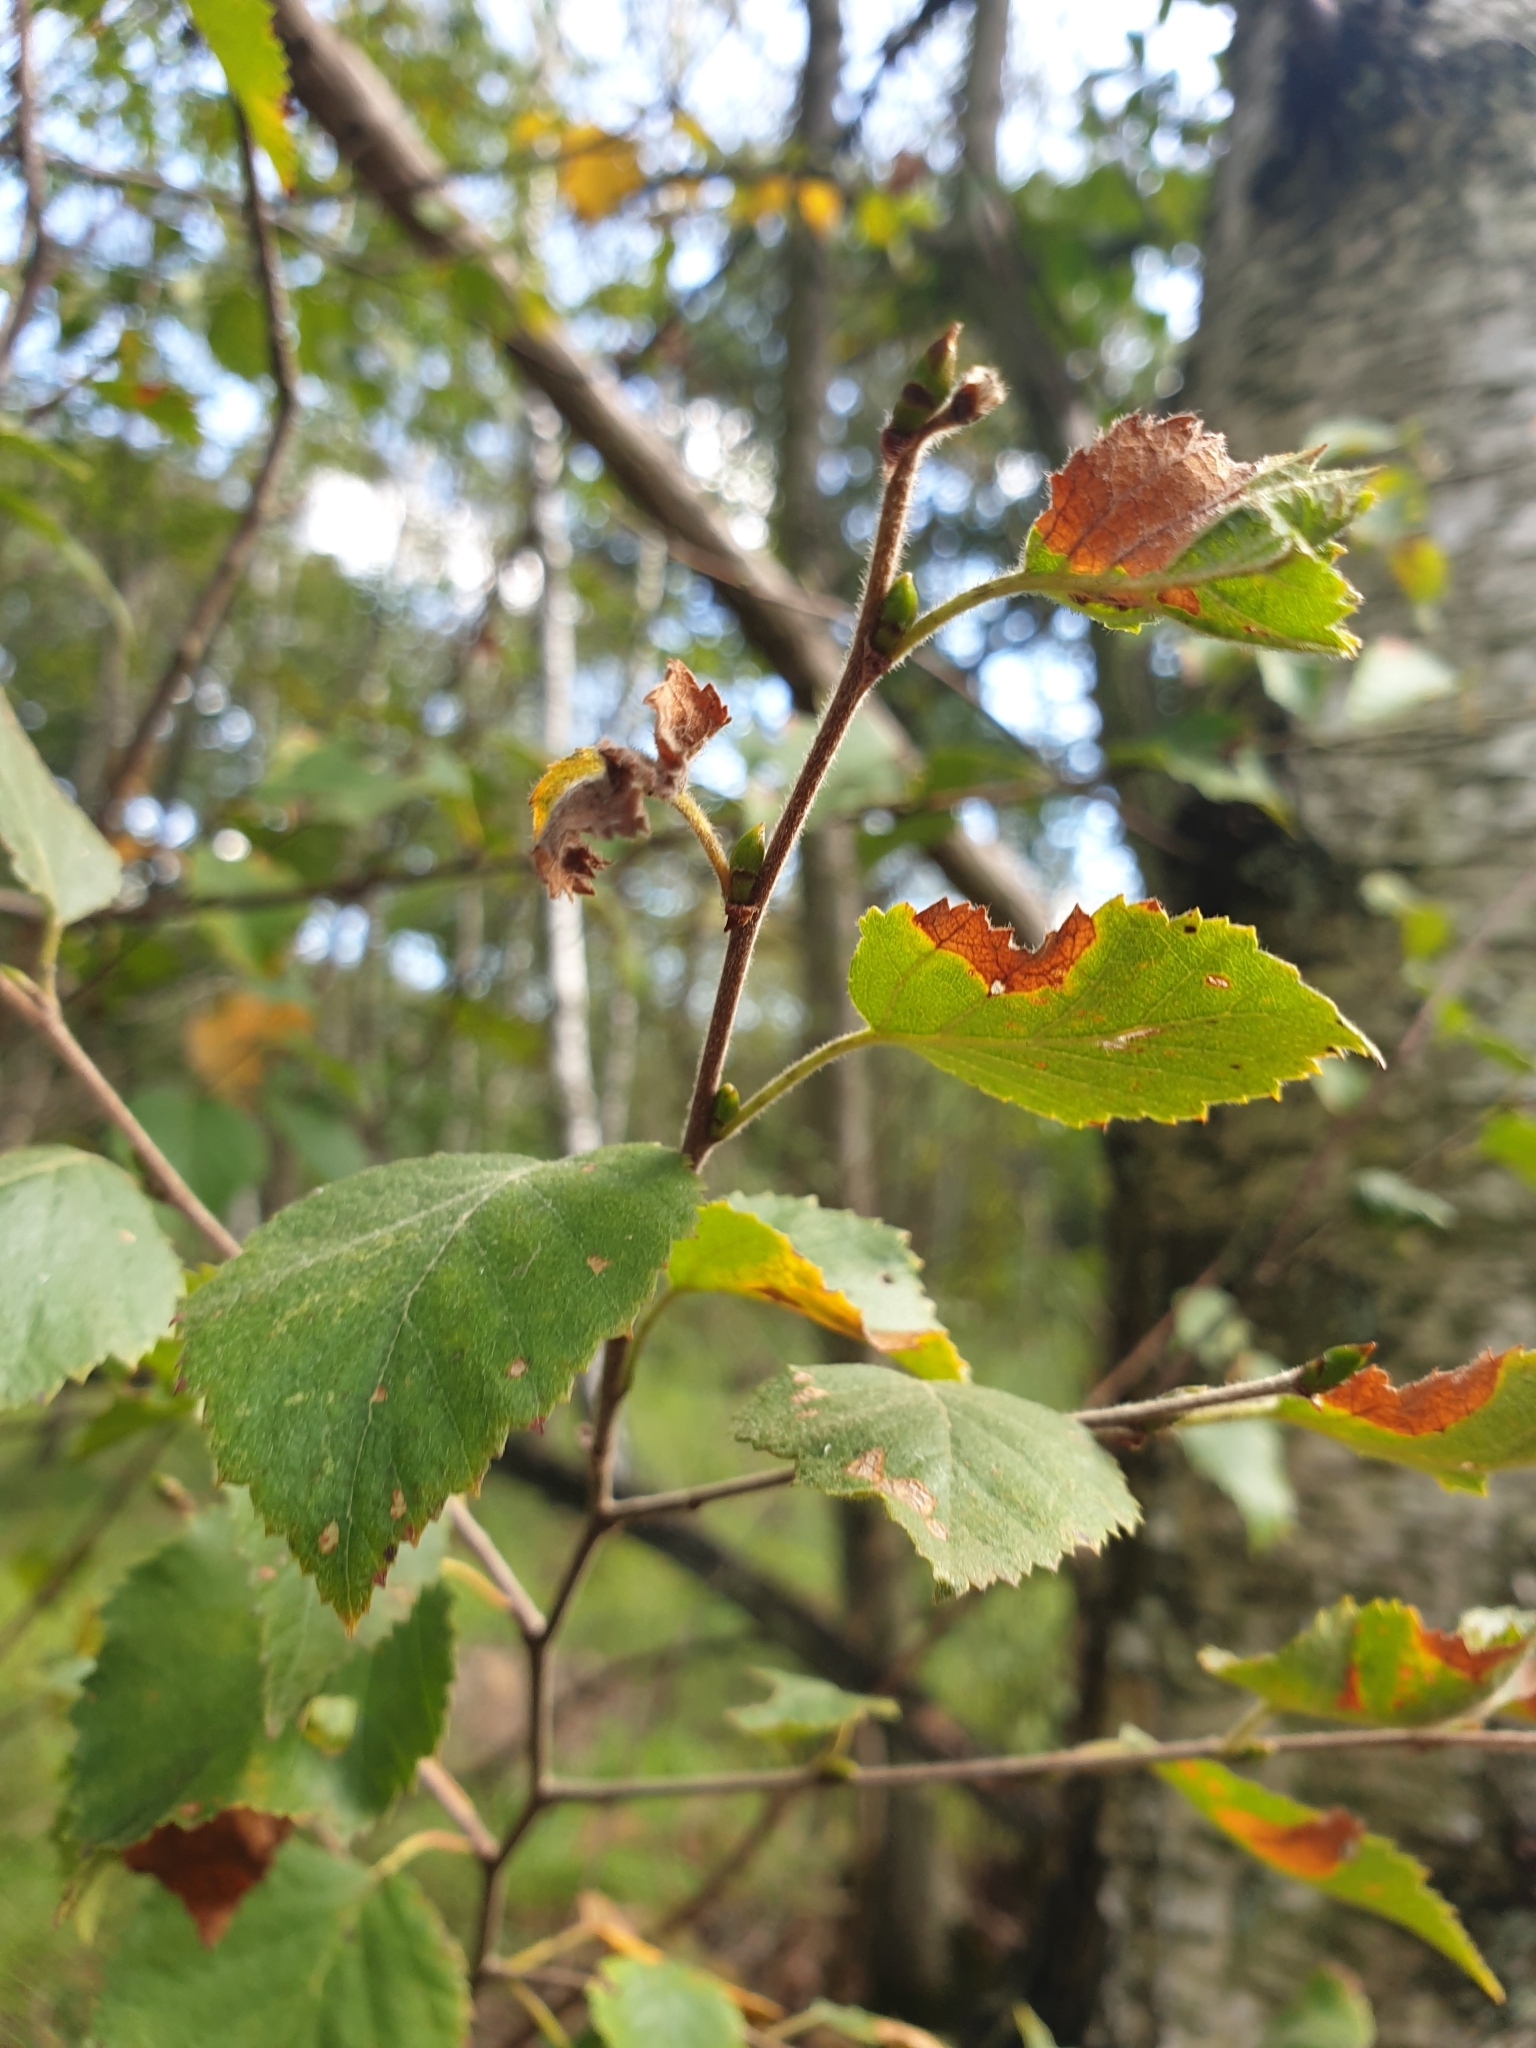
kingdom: Plantae
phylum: Tracheophyta
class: Magnoliopsida
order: Fagales
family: Betulaceae
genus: Betula
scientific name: Betula pubescens
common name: Downy birch
